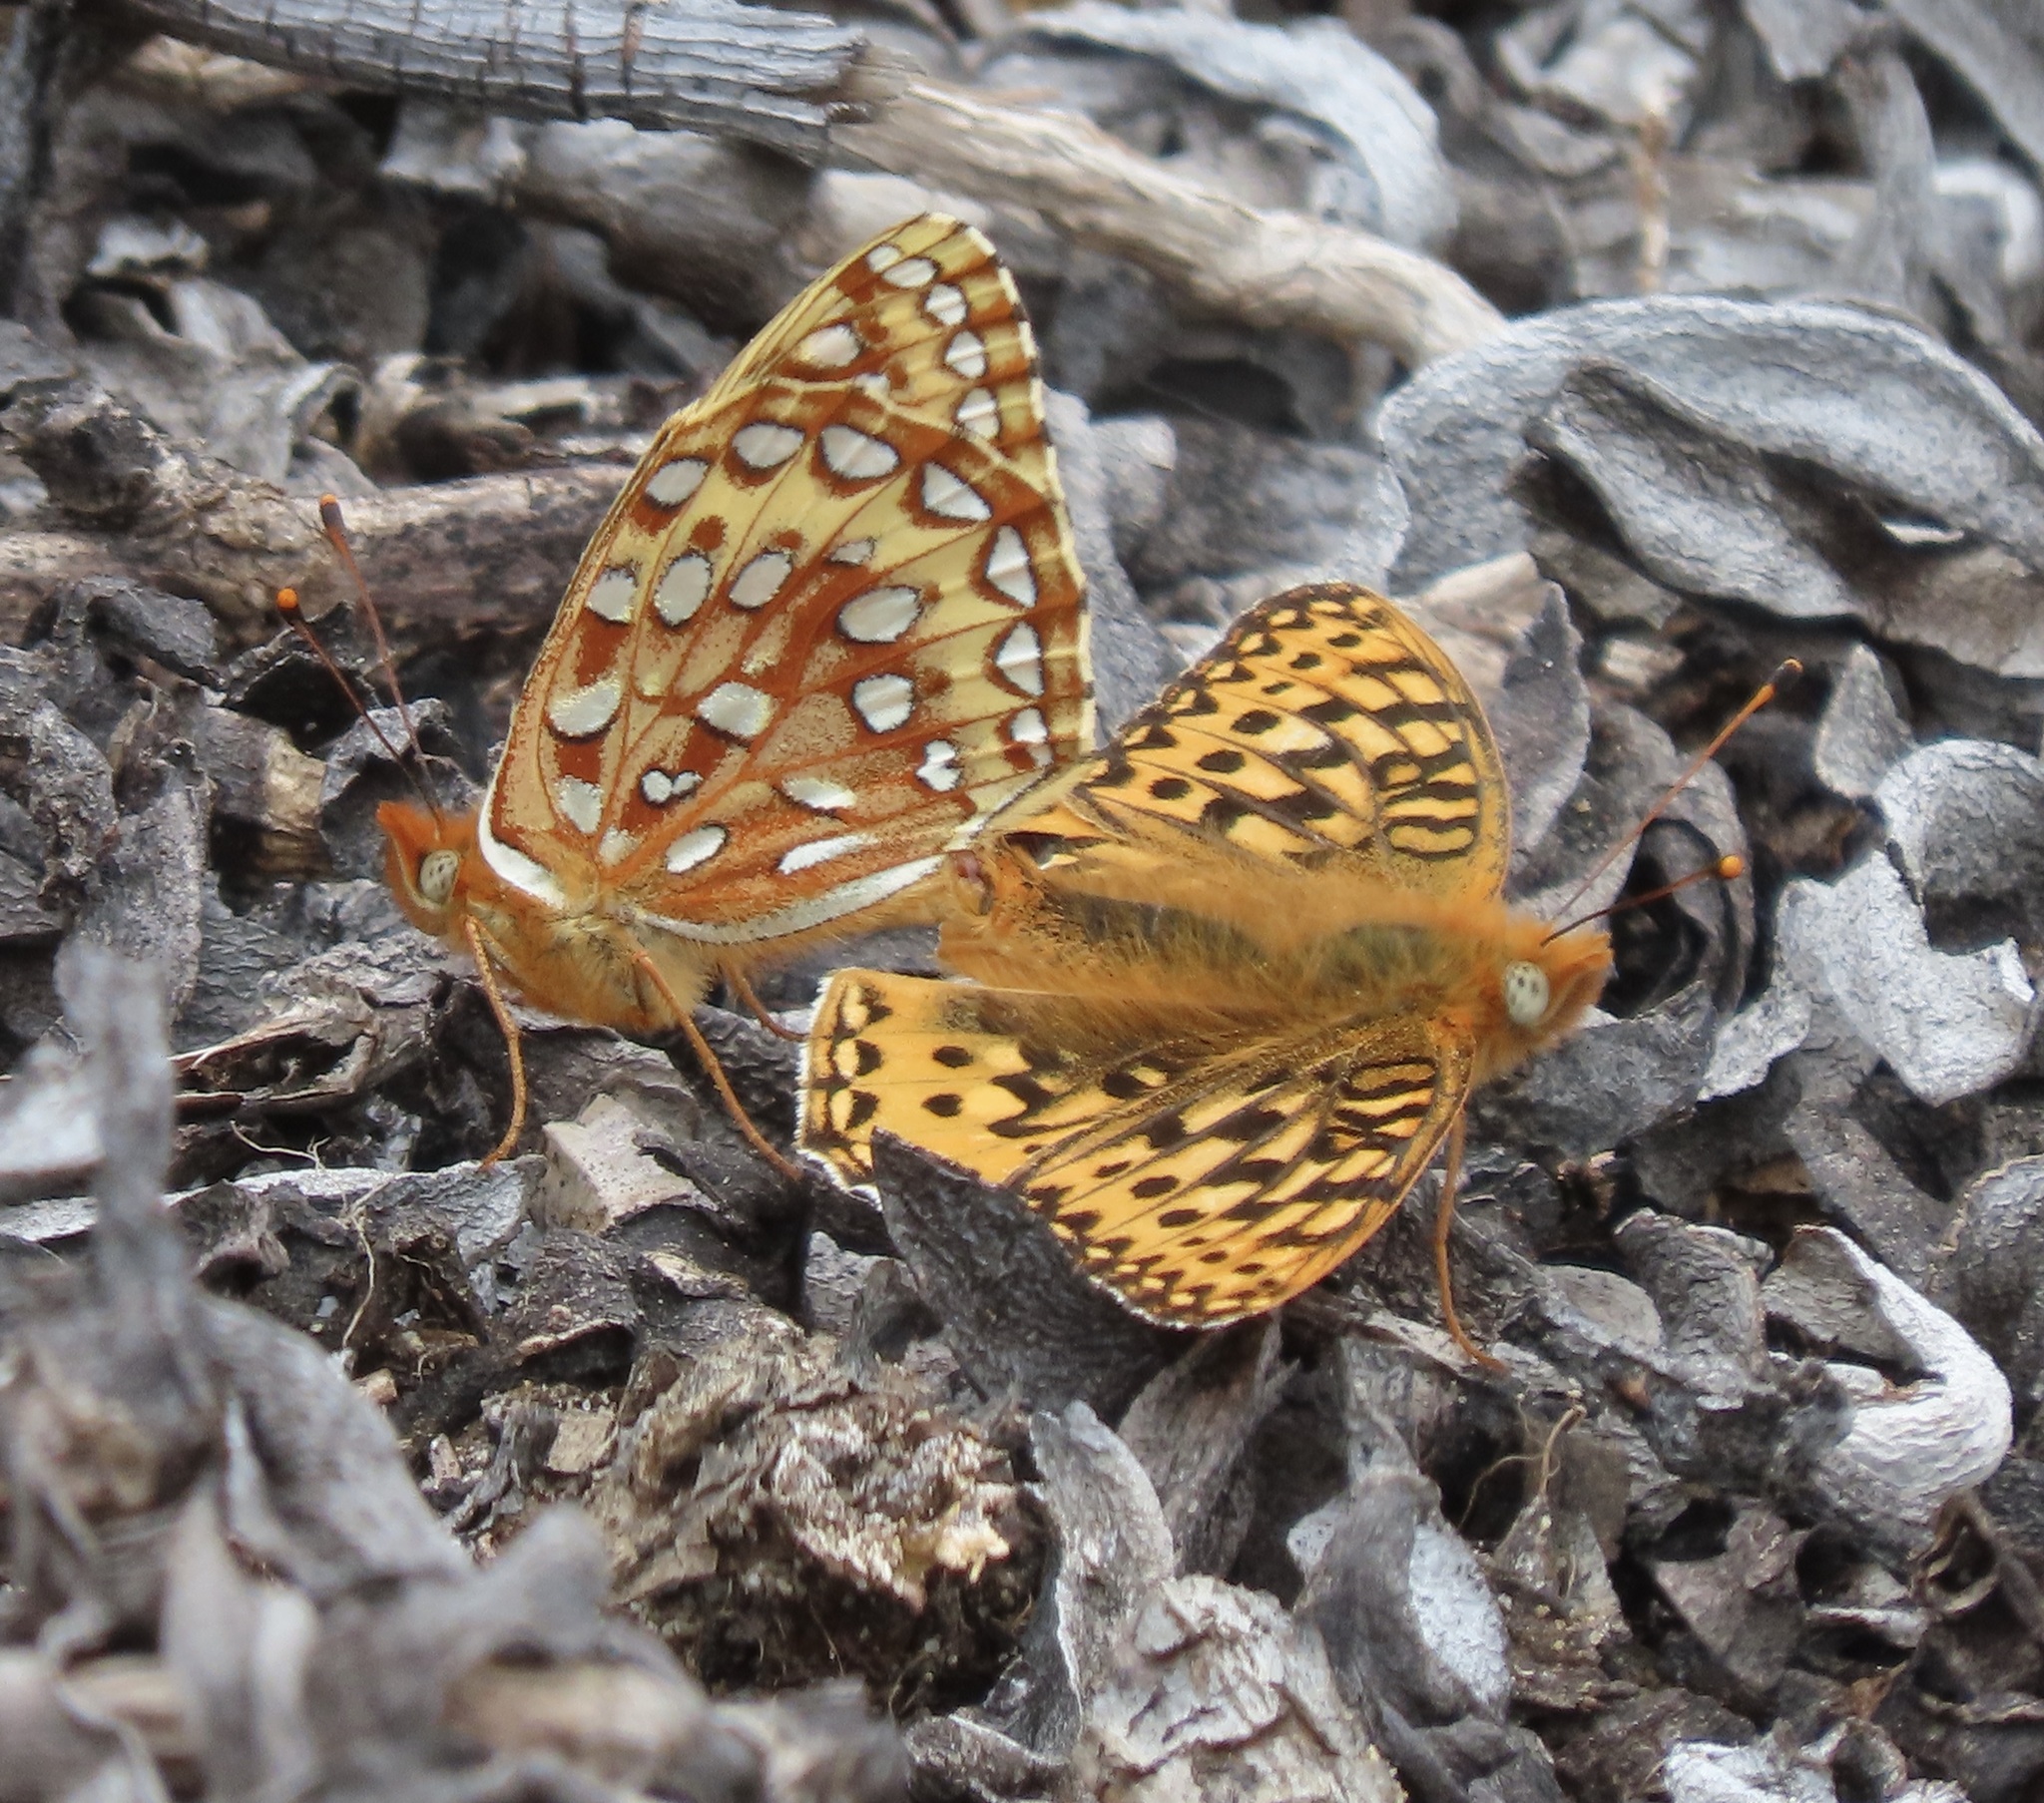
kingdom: Animalia
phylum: Arthropoda
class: Insecta
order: Lepidoptera
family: Nymphalidae
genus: Speyeria
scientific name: Speyeria zerene
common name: Zerene fritillary
